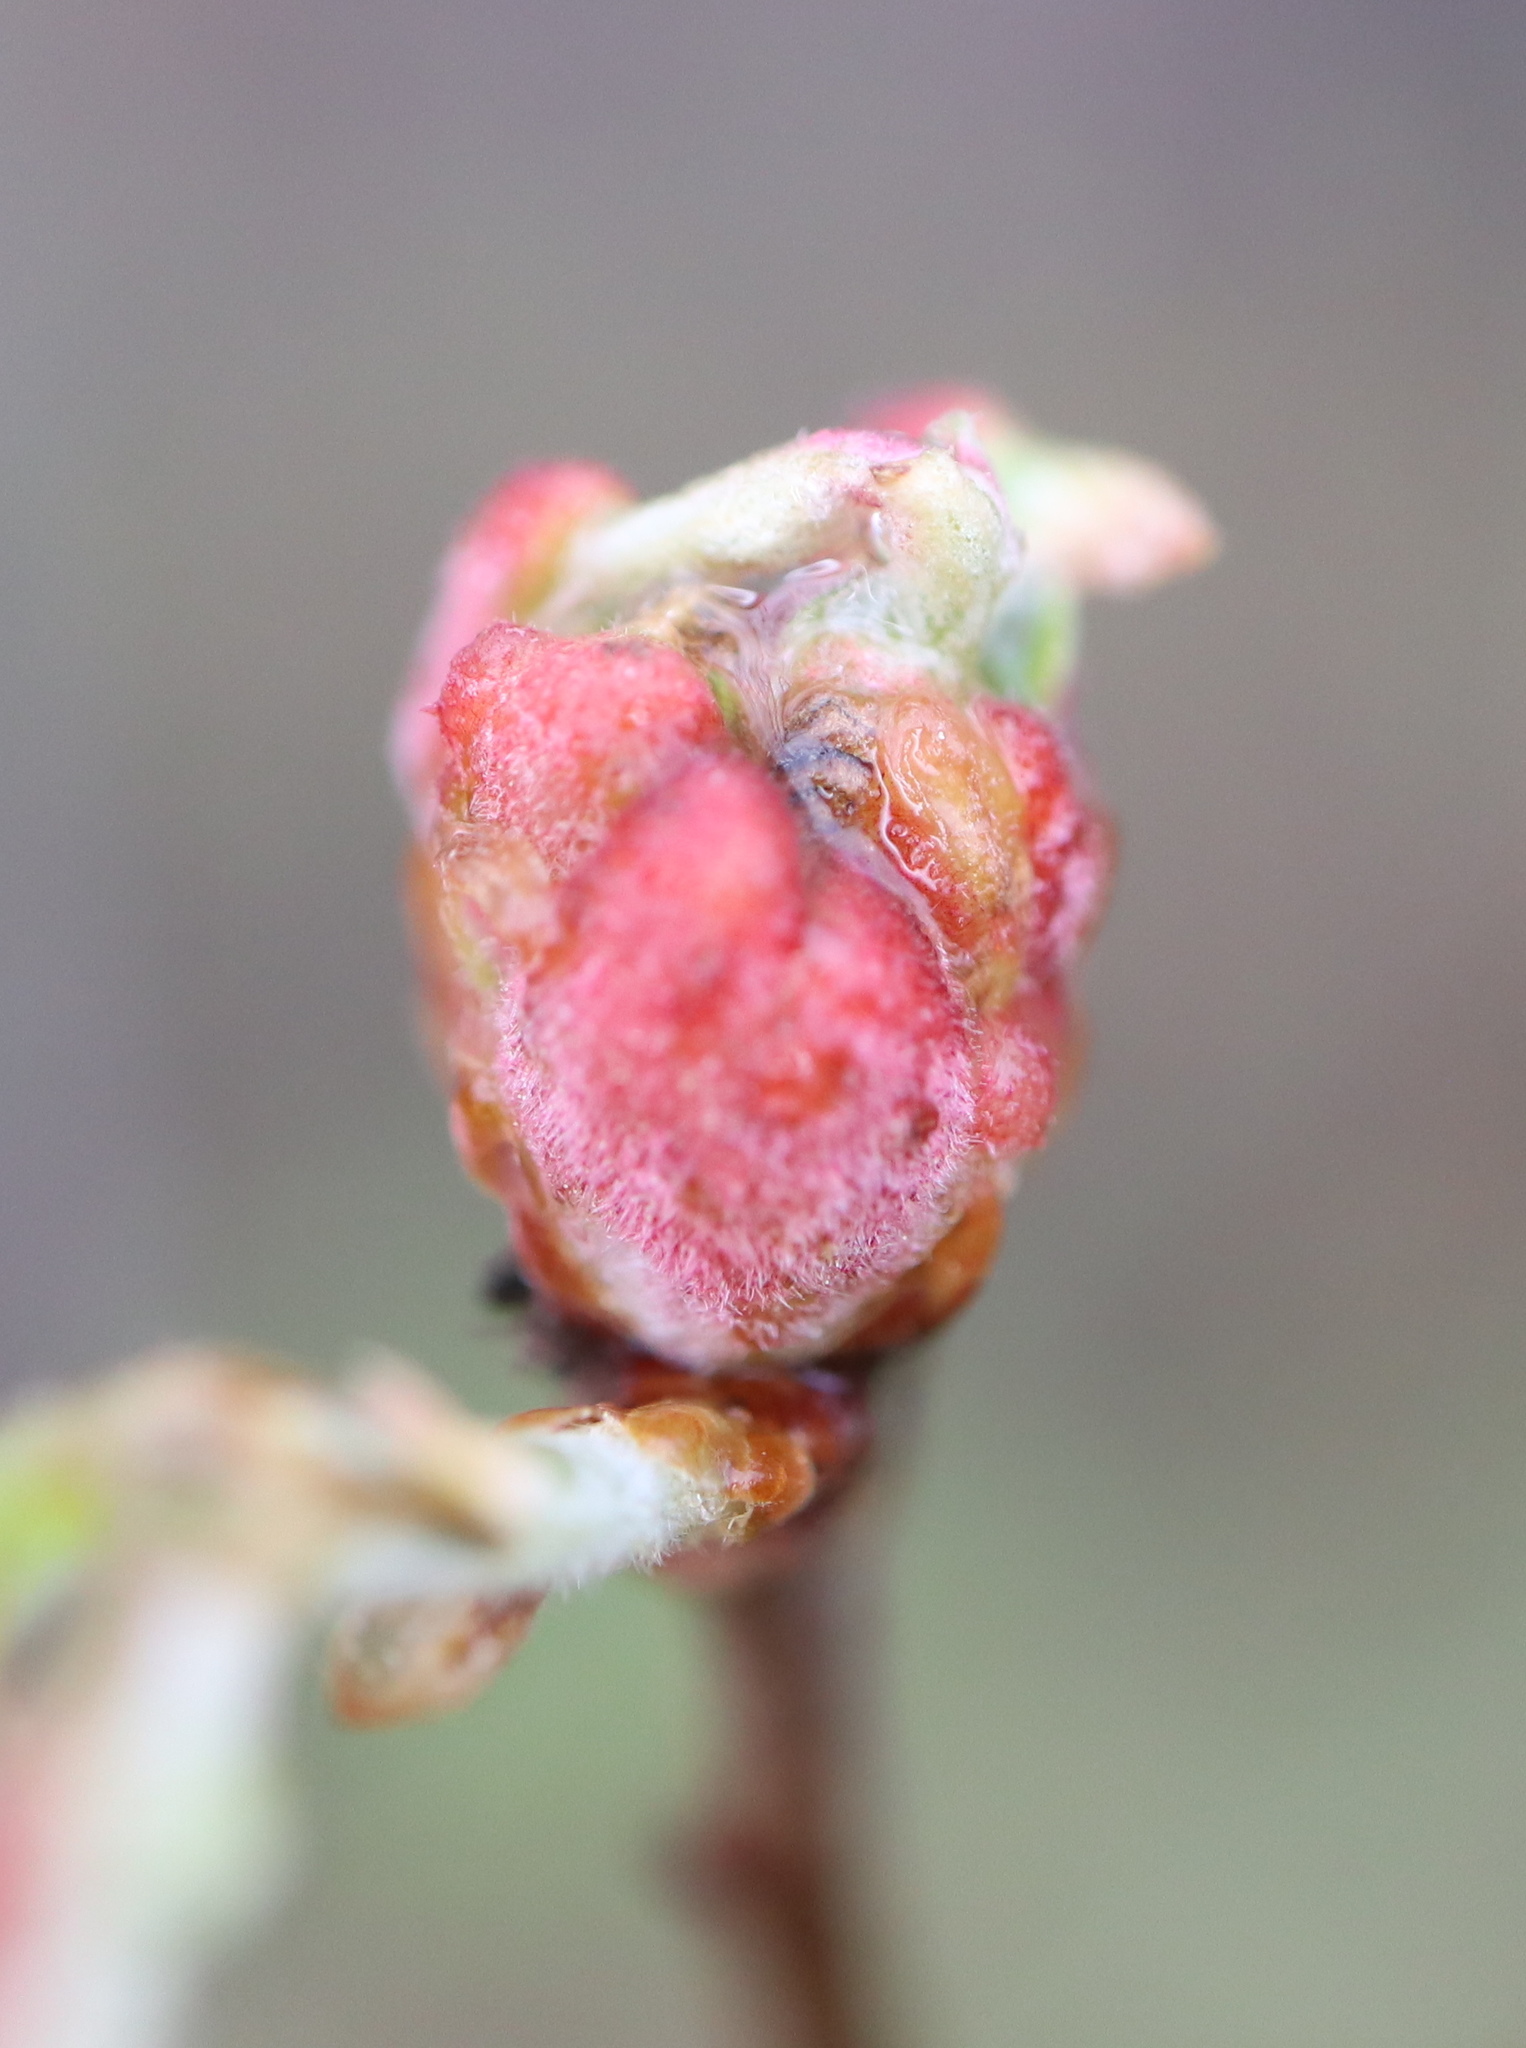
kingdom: Animalia
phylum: Arthropoda
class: Insecta
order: Hymenoptera
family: Cynipidae
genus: Neuroterus
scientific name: Neuroterus minutulus
